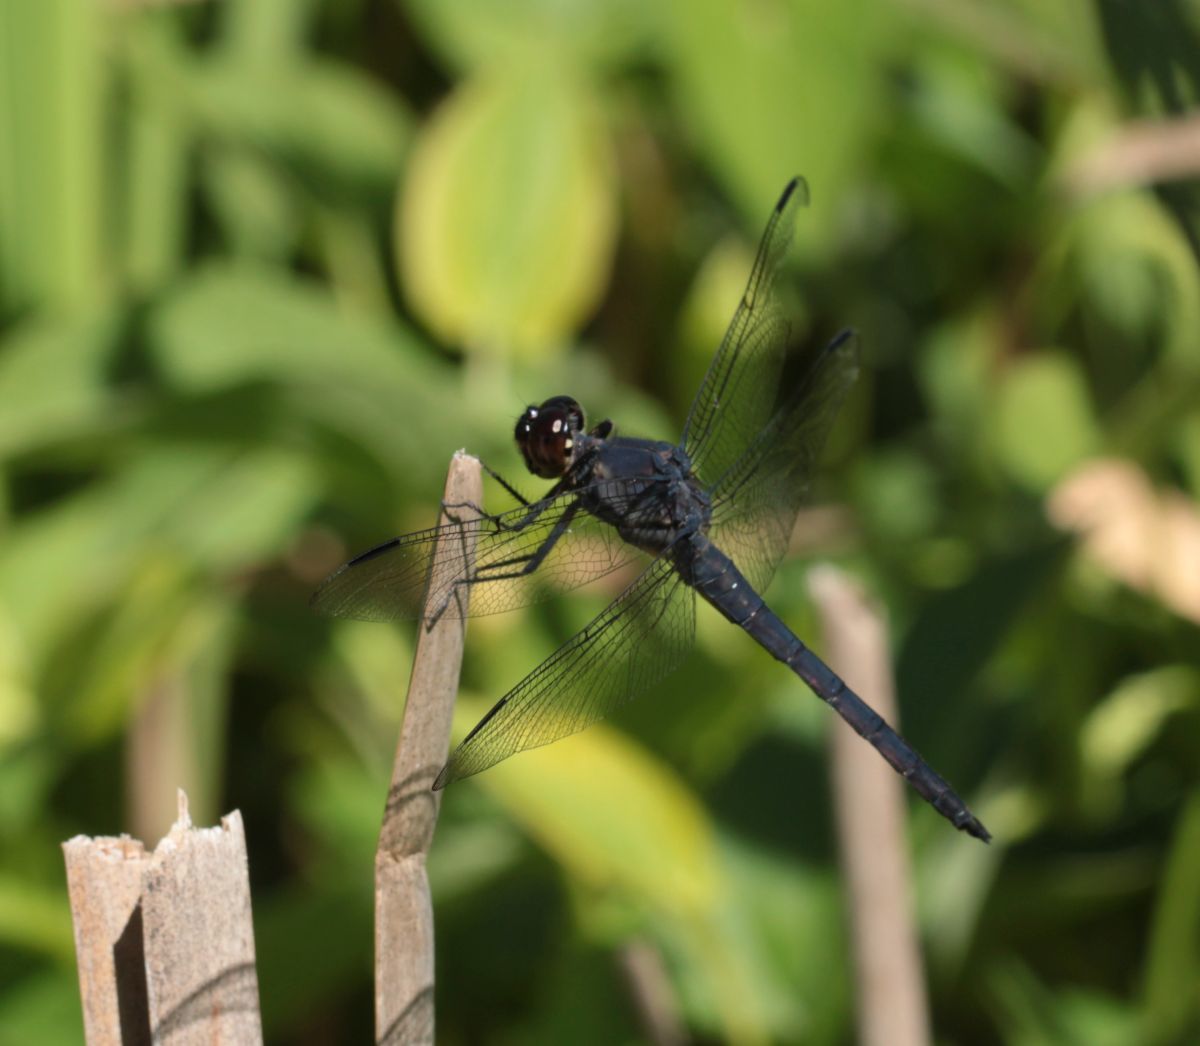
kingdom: Animalia
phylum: Arthropoda
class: Insecta
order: Odonata
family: Libellulidae
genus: Libellula
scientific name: Libellula incesta
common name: Slaty skimmer
